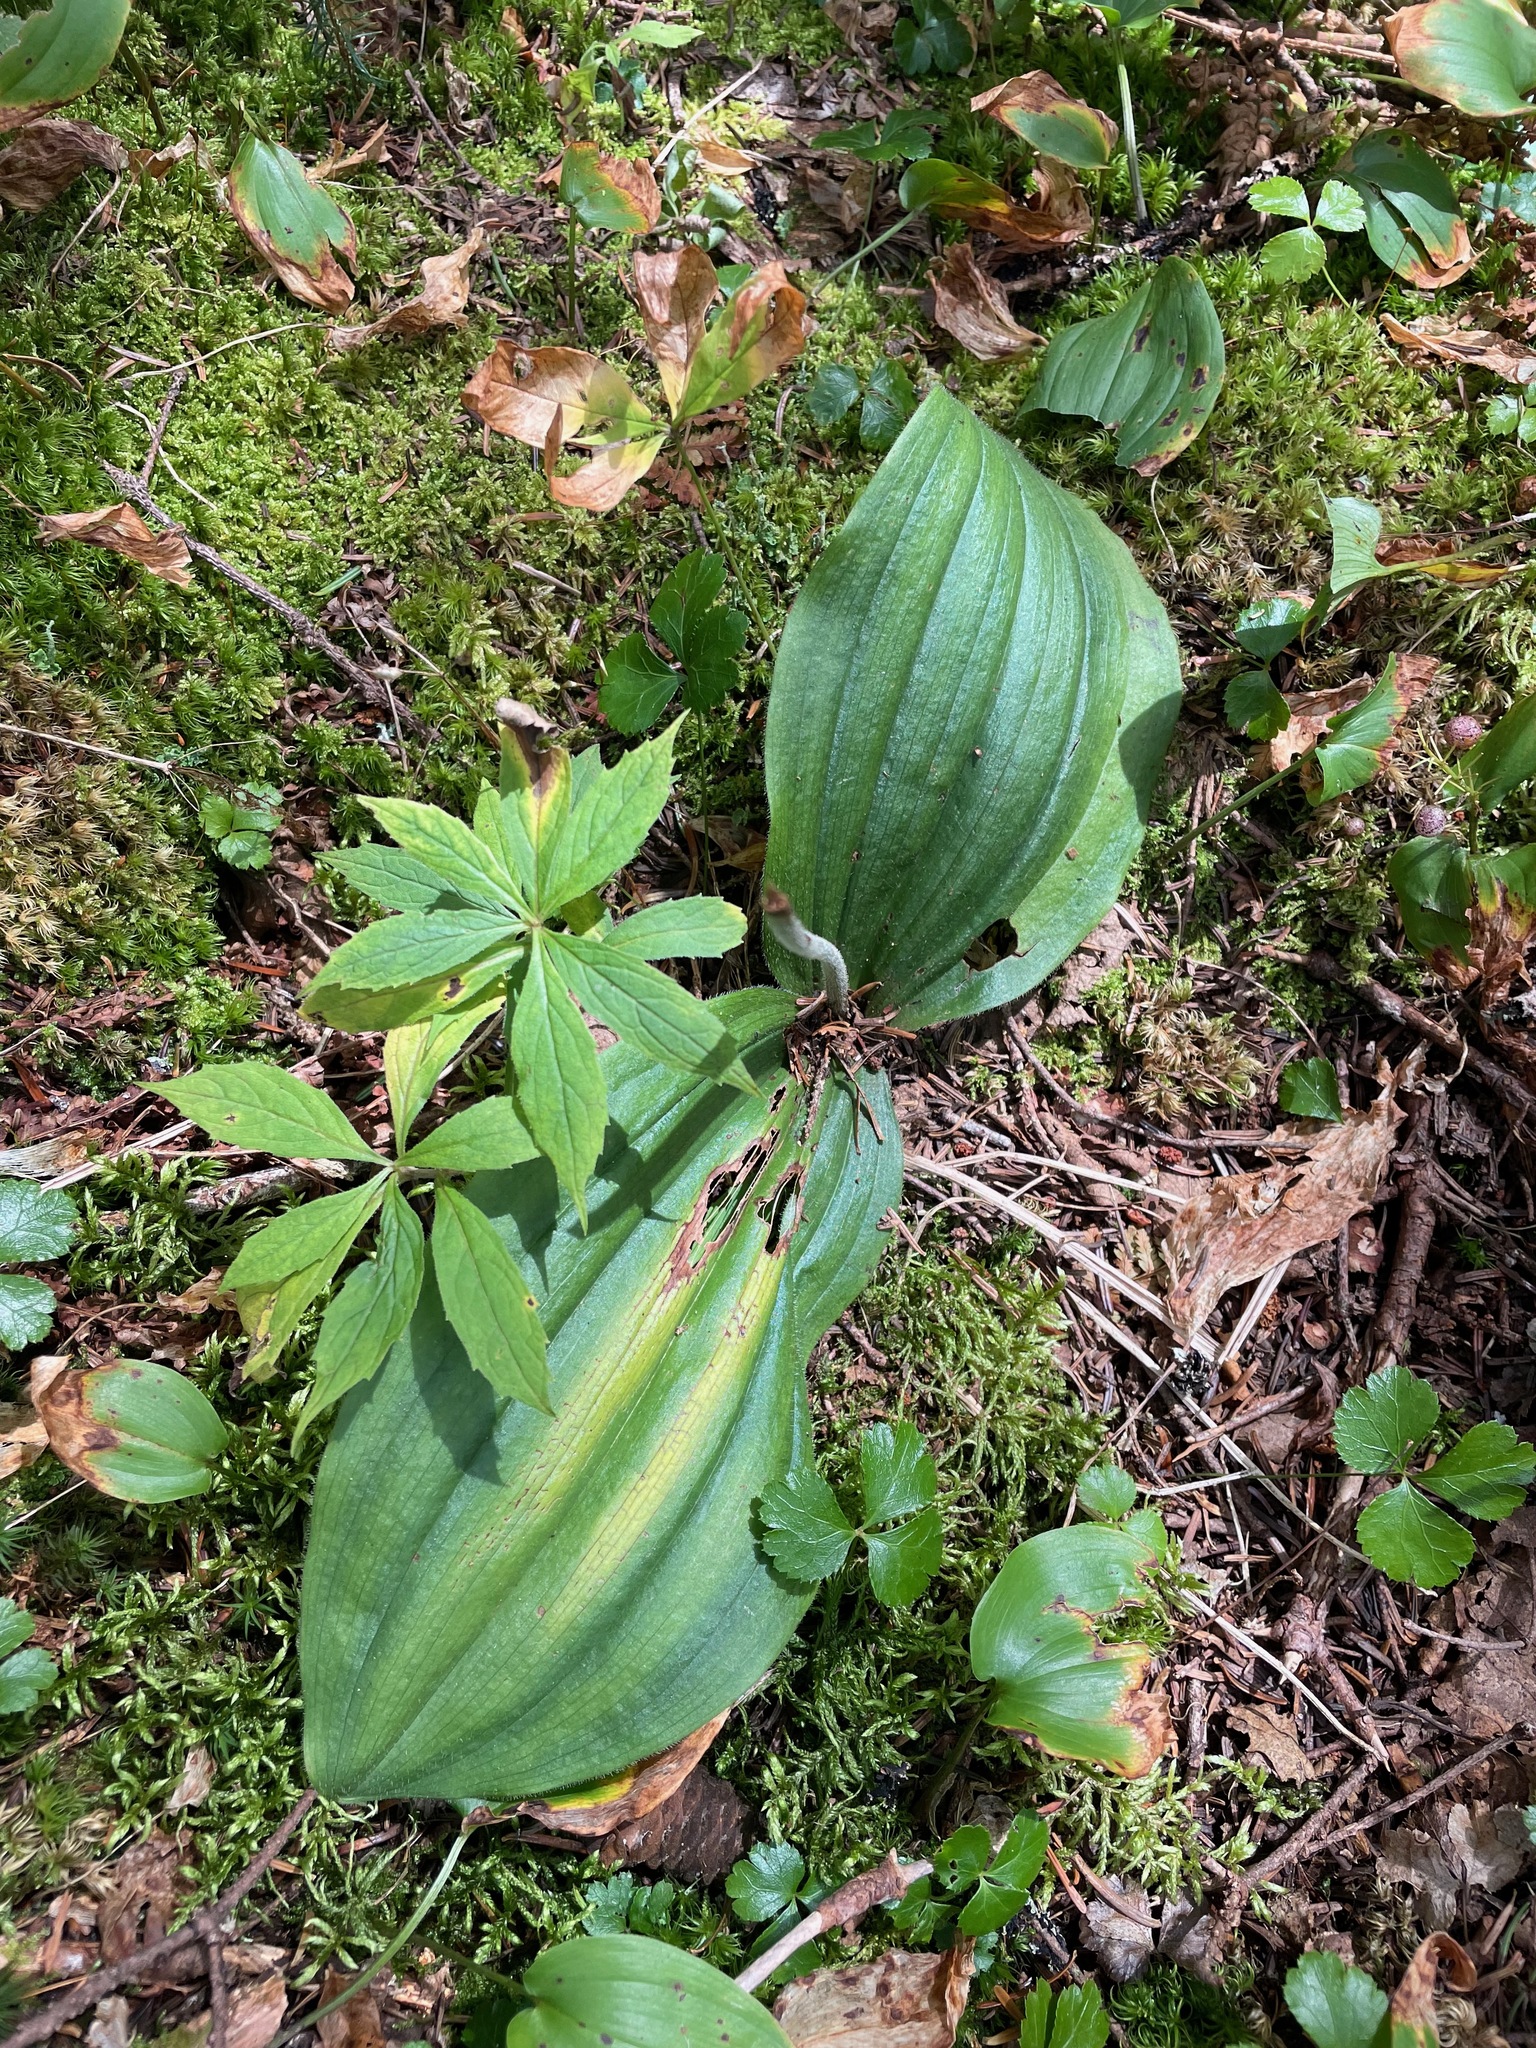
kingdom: Plantae
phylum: Tracheophyta
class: Liliopsida
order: Asparagales
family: Orchidaceae
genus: Cypripedium
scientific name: Cypripedium acaule
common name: Pink lady's-slipper
